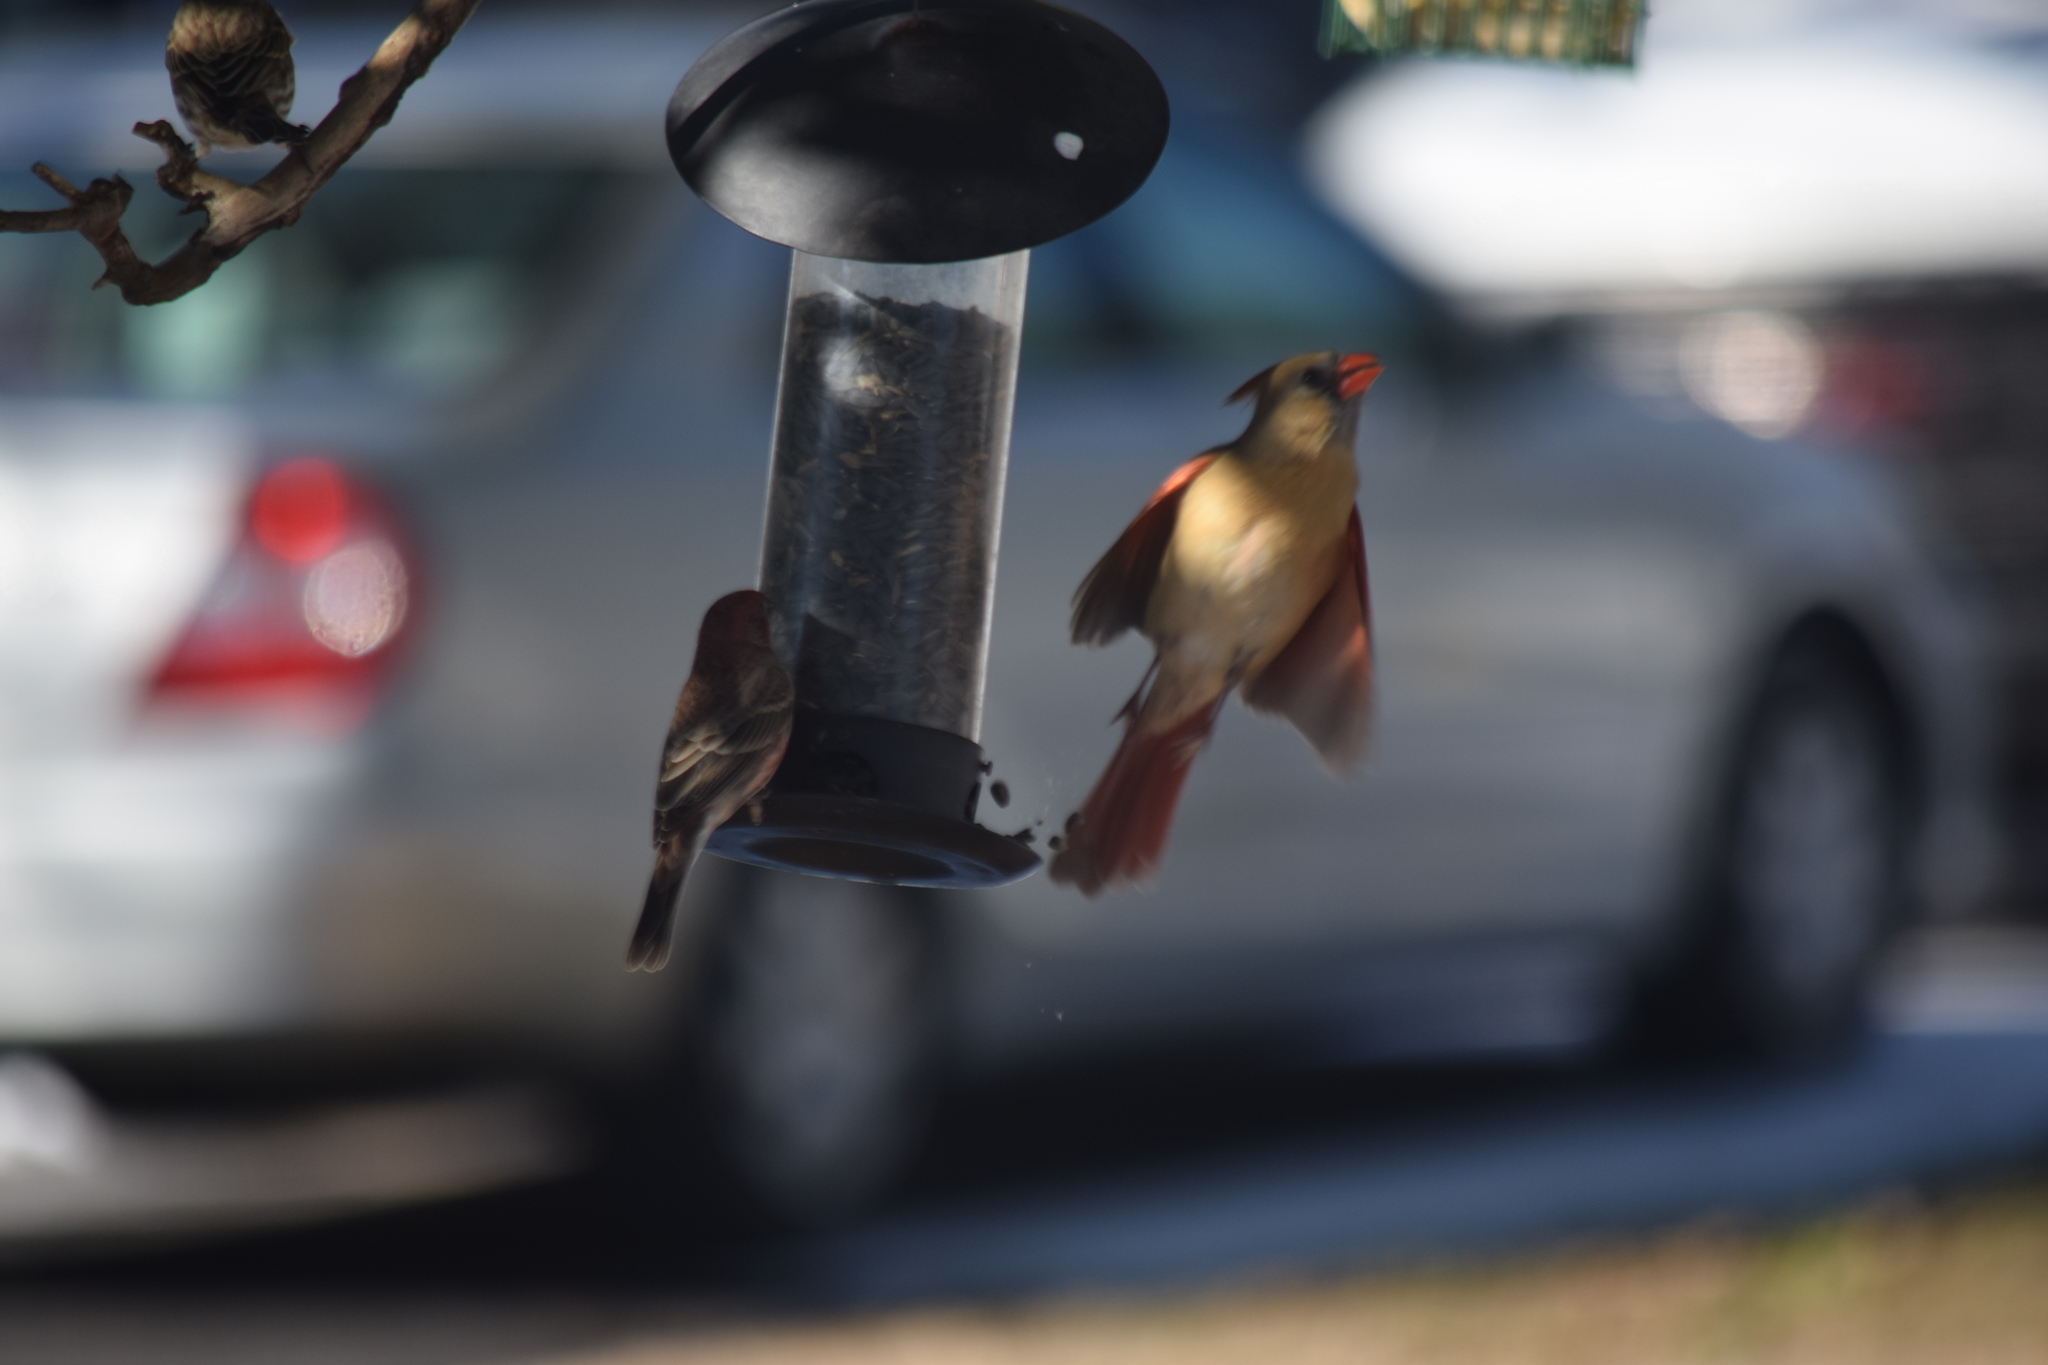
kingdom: Animalia
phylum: Chordata
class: Aves
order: Passeriformes
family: Cardinalidae
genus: Cardinalis
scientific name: Cardinalis cardinalis
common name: Northern cardinal
